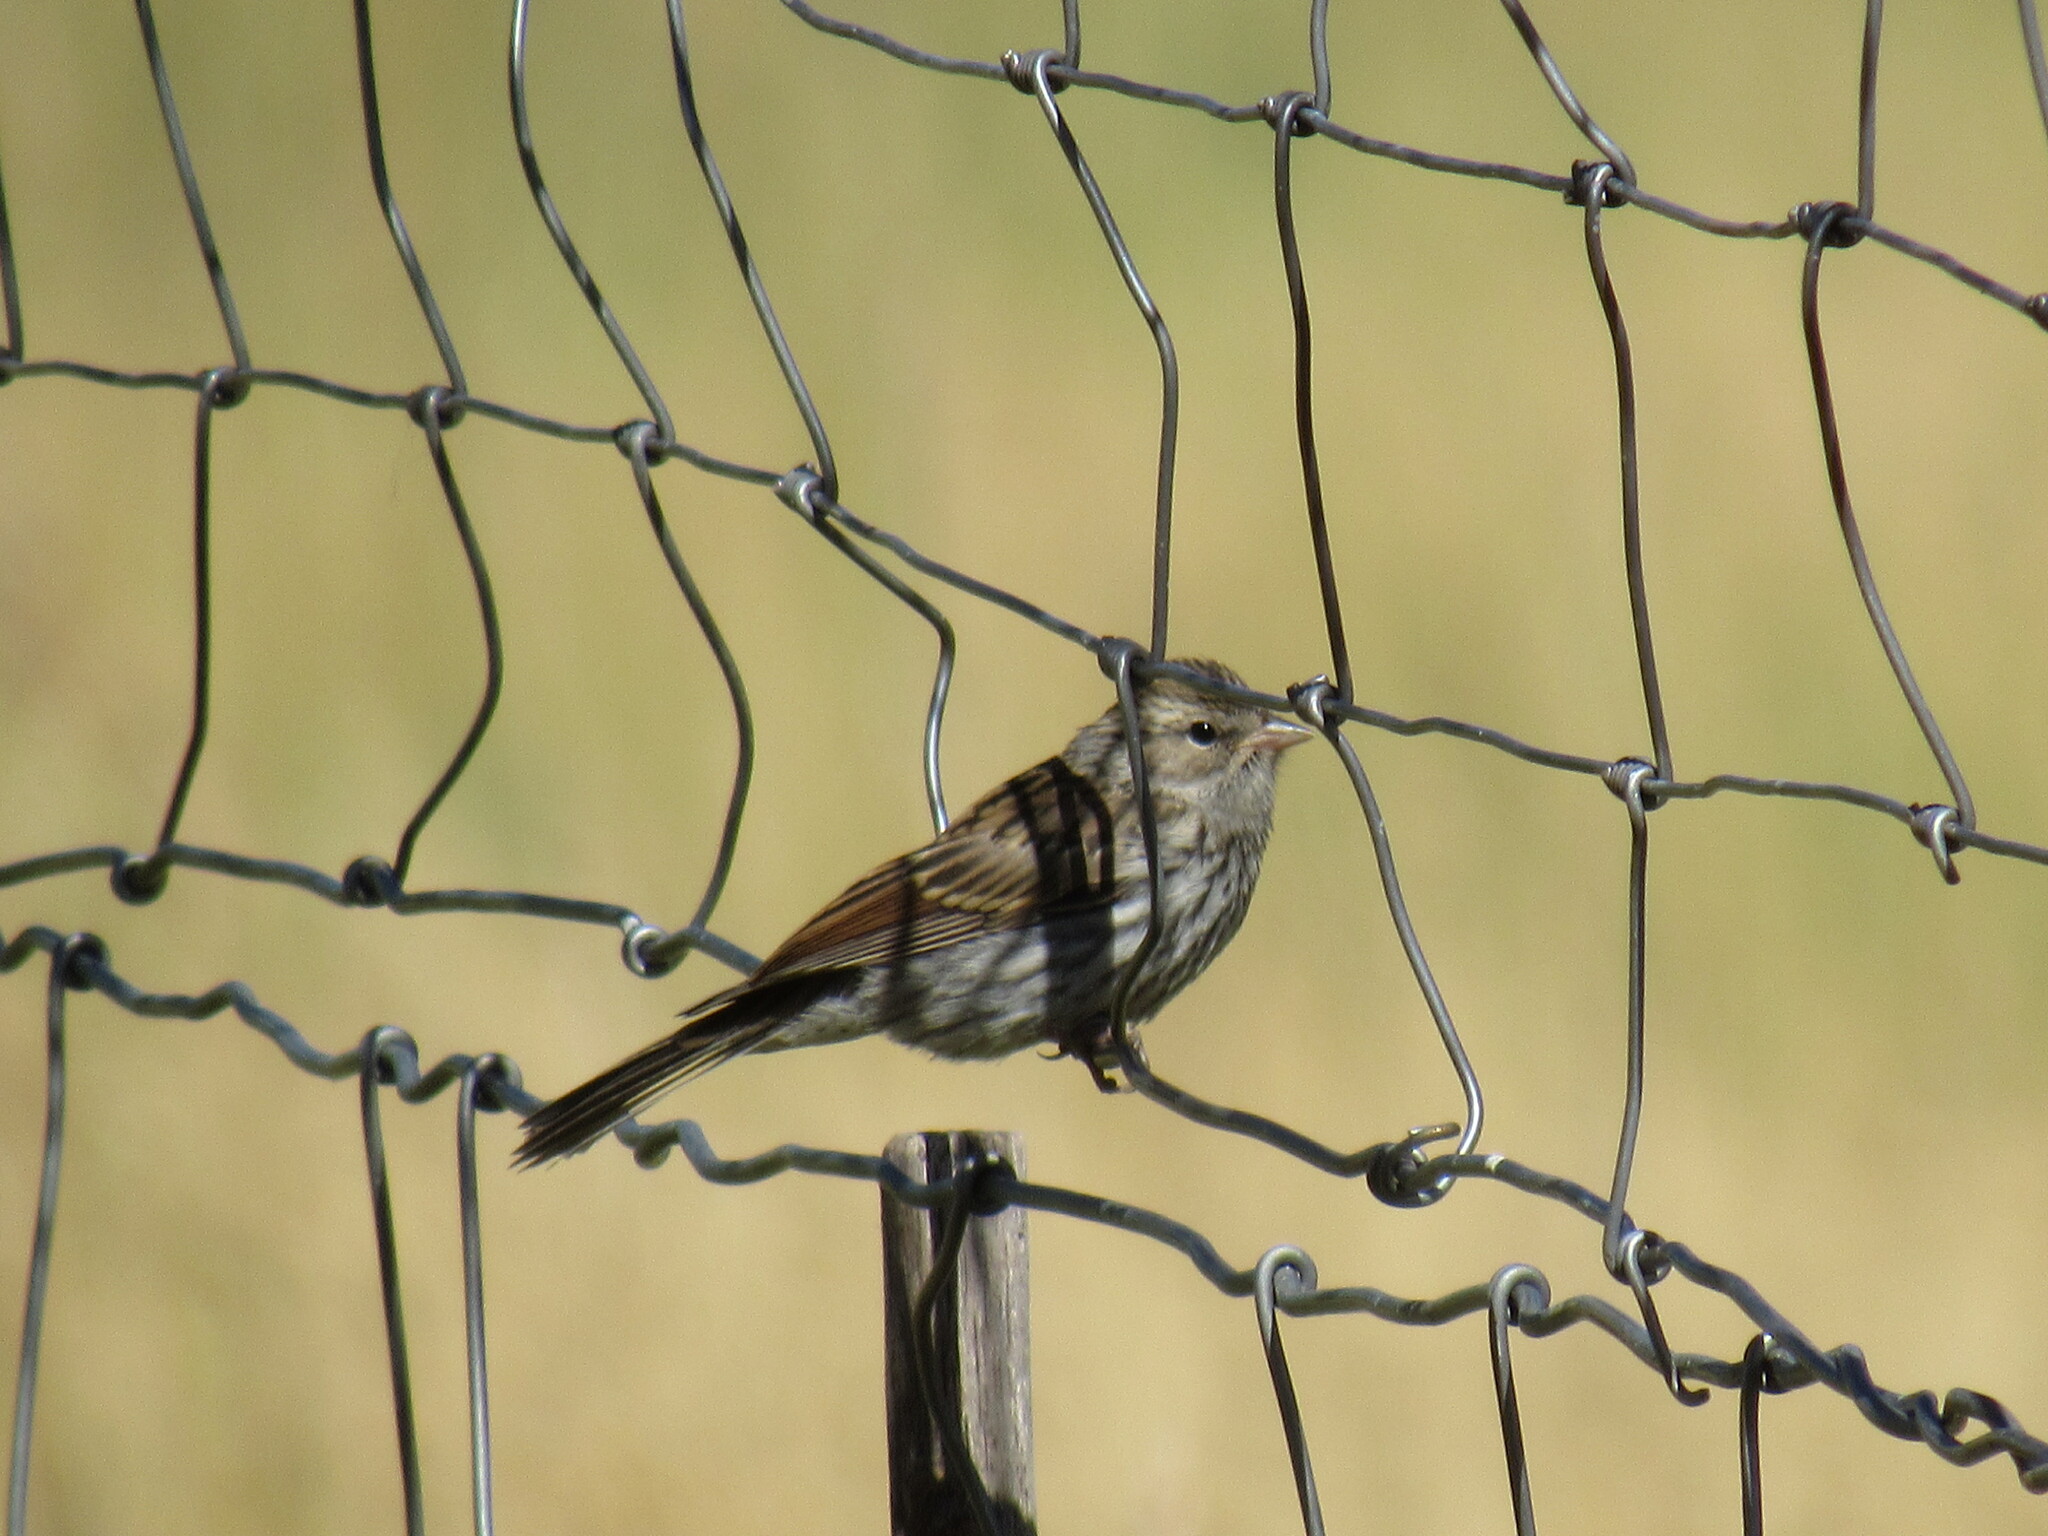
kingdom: Animalia
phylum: Chordata
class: Aves
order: Passeriformes
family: Passerellidae
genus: Spizella
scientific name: Spizella passerina
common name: Chipping sparrow
